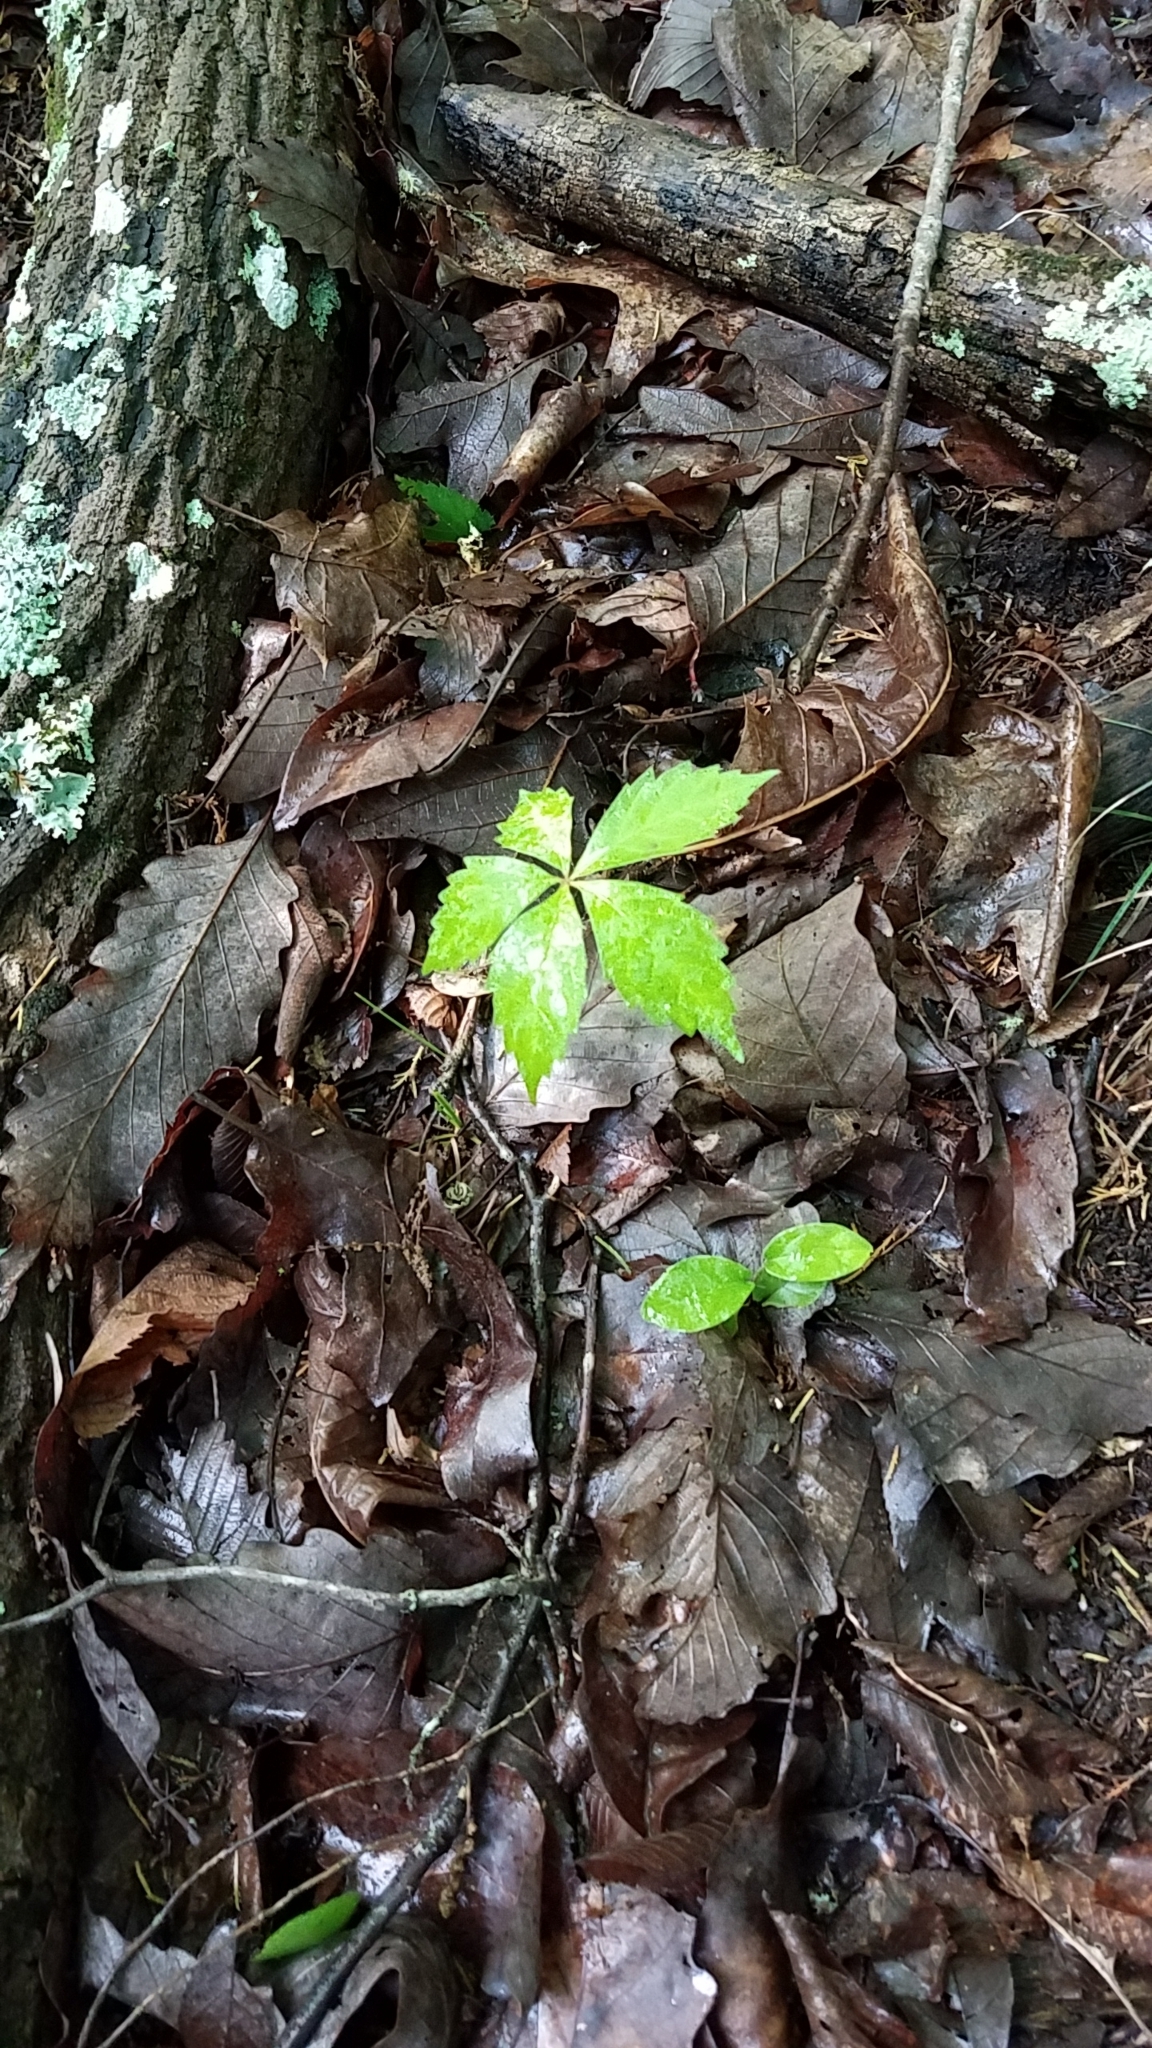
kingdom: Plantae
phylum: Tracheophyta
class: Magnoliopsida
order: Vitales
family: Vitaceae
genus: Parthenocissus
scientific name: Parthenocissus quinquefolia
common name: Virginia-creeper
